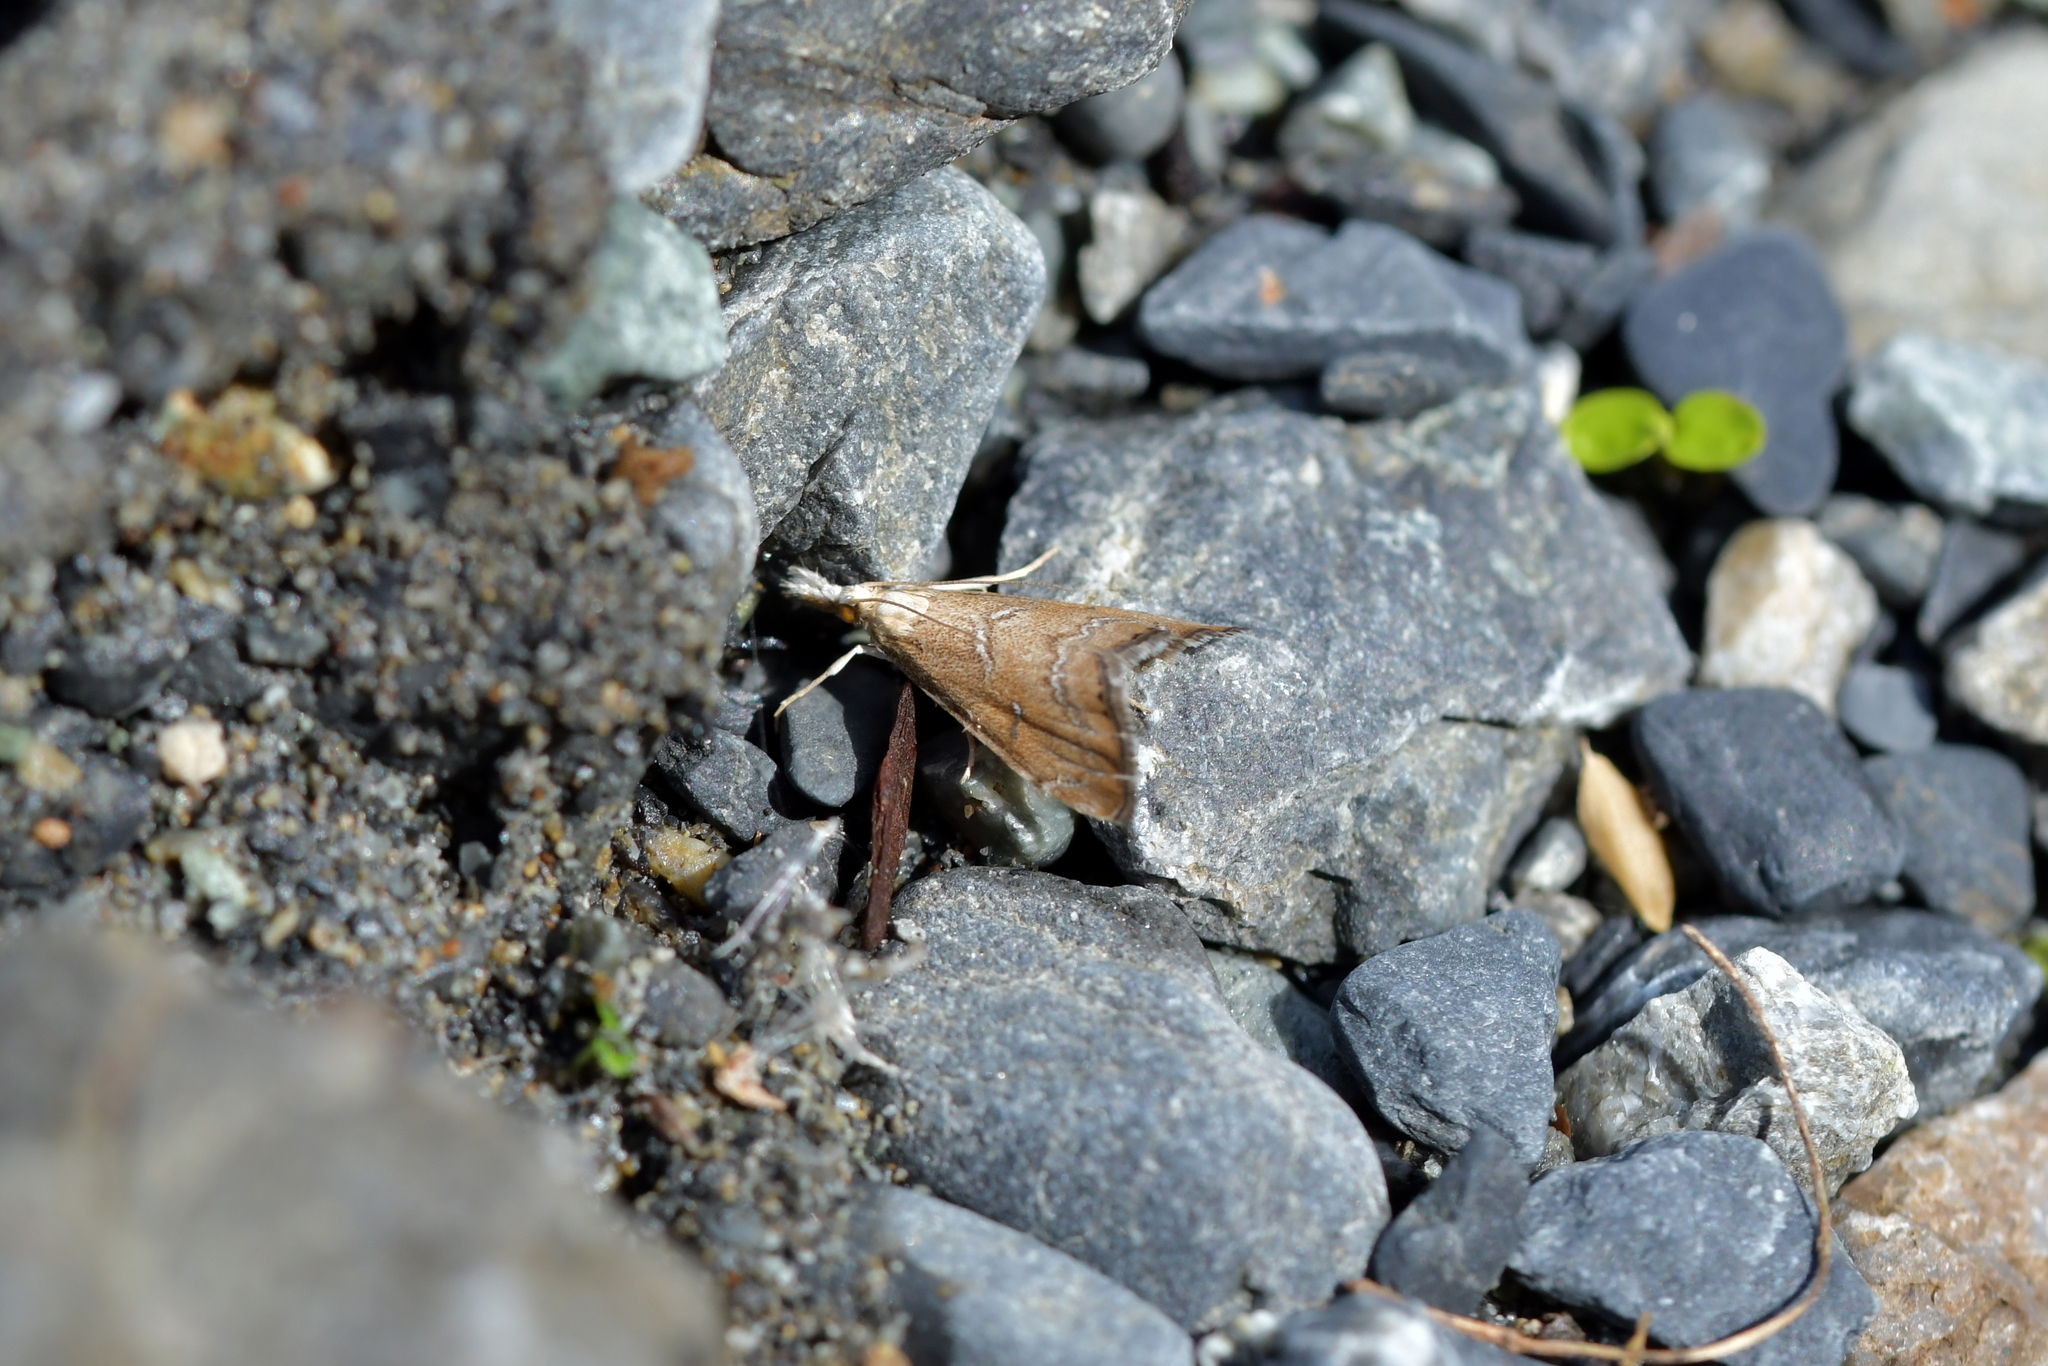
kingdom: Animalia
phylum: Arthropoda
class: Insecta
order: Lepidoptera
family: Crambidae
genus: Glaucocharis
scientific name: Glaucocharis
